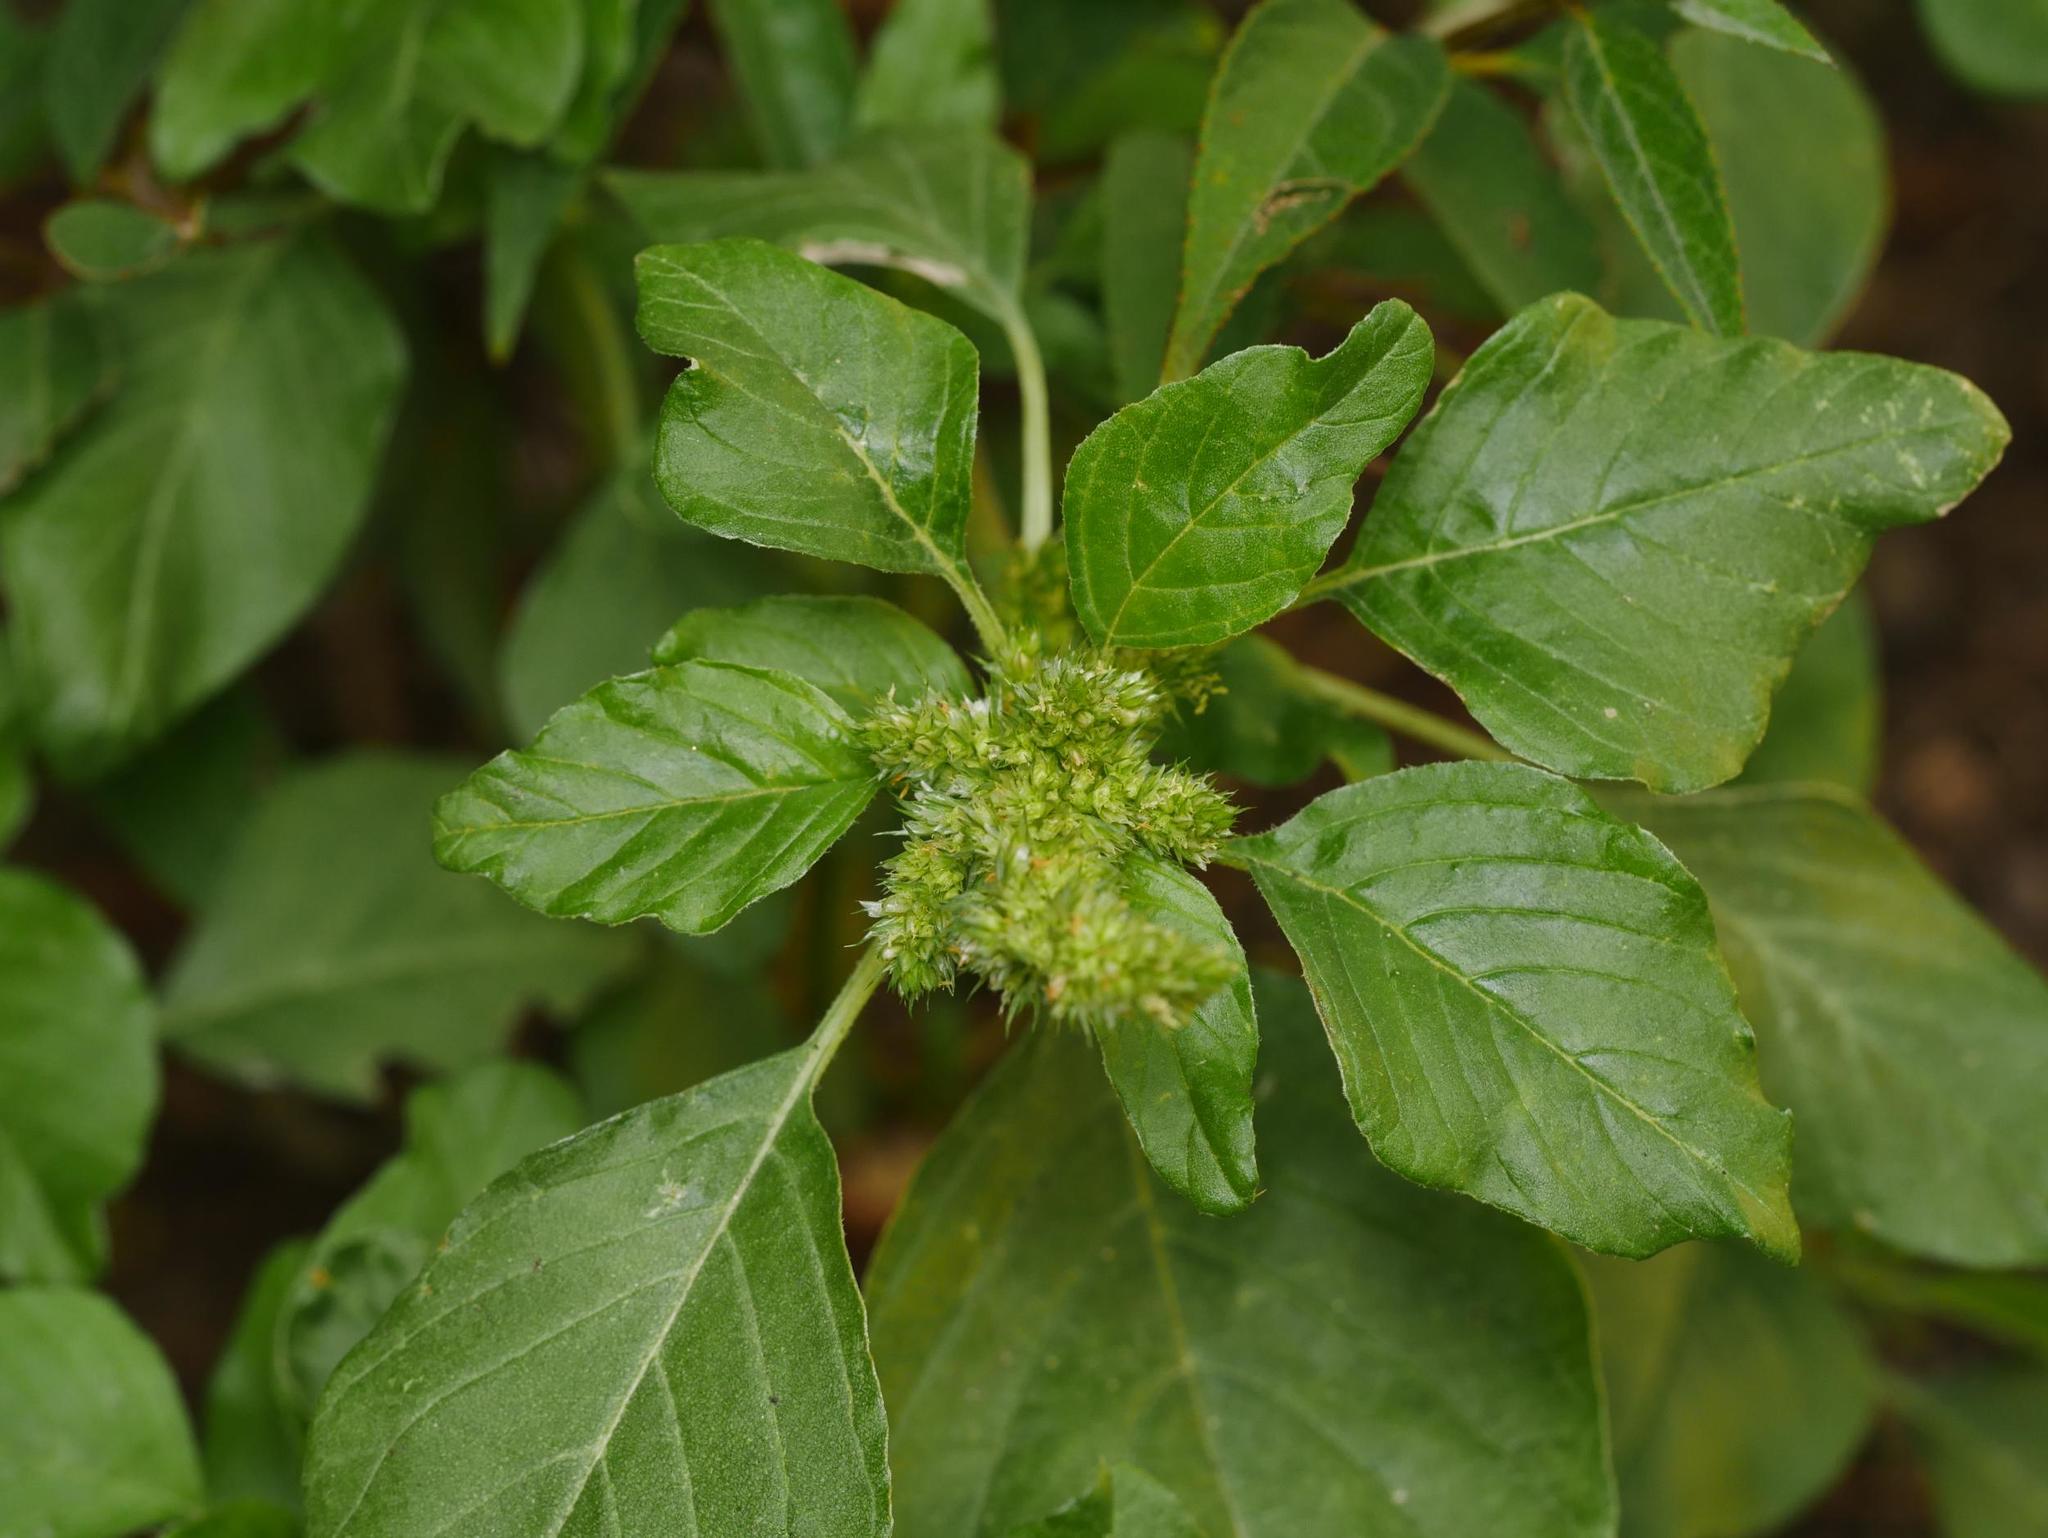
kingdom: Plantae
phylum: Tracheophyta
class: Magnoliopsida
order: Caryophyllales
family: Amaranthaceae
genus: Amaranthus
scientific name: Amaranthus retroflexus
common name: Redroot amaranth
